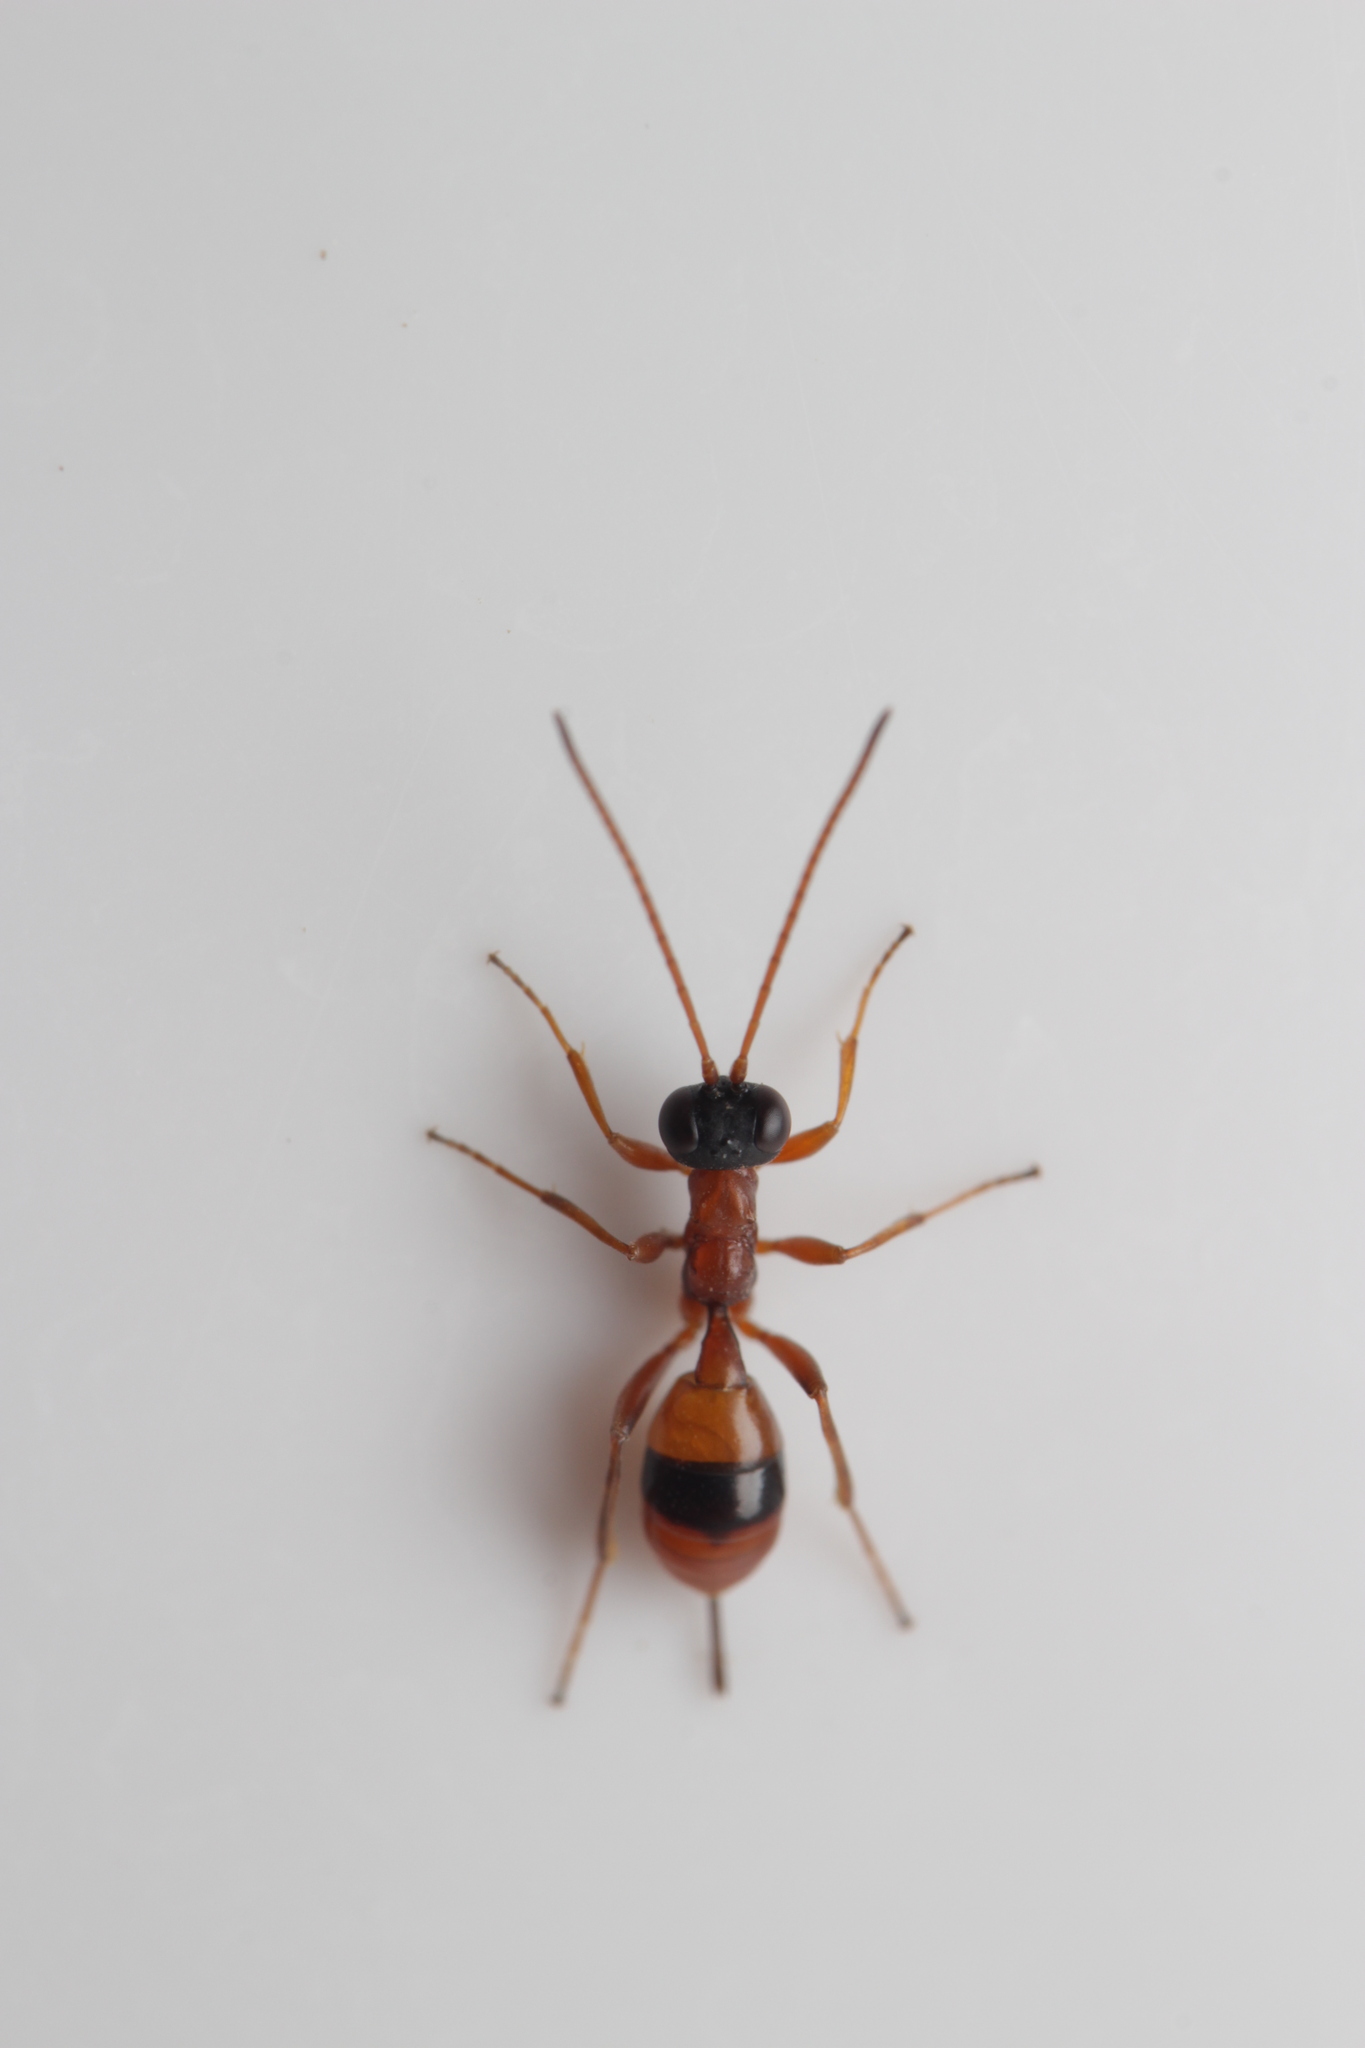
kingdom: Animalia
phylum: Arthropoda
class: Insecta
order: Hymenoptera
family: Ichneumonidae
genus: Gelis
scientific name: Gelis melanocephalus
